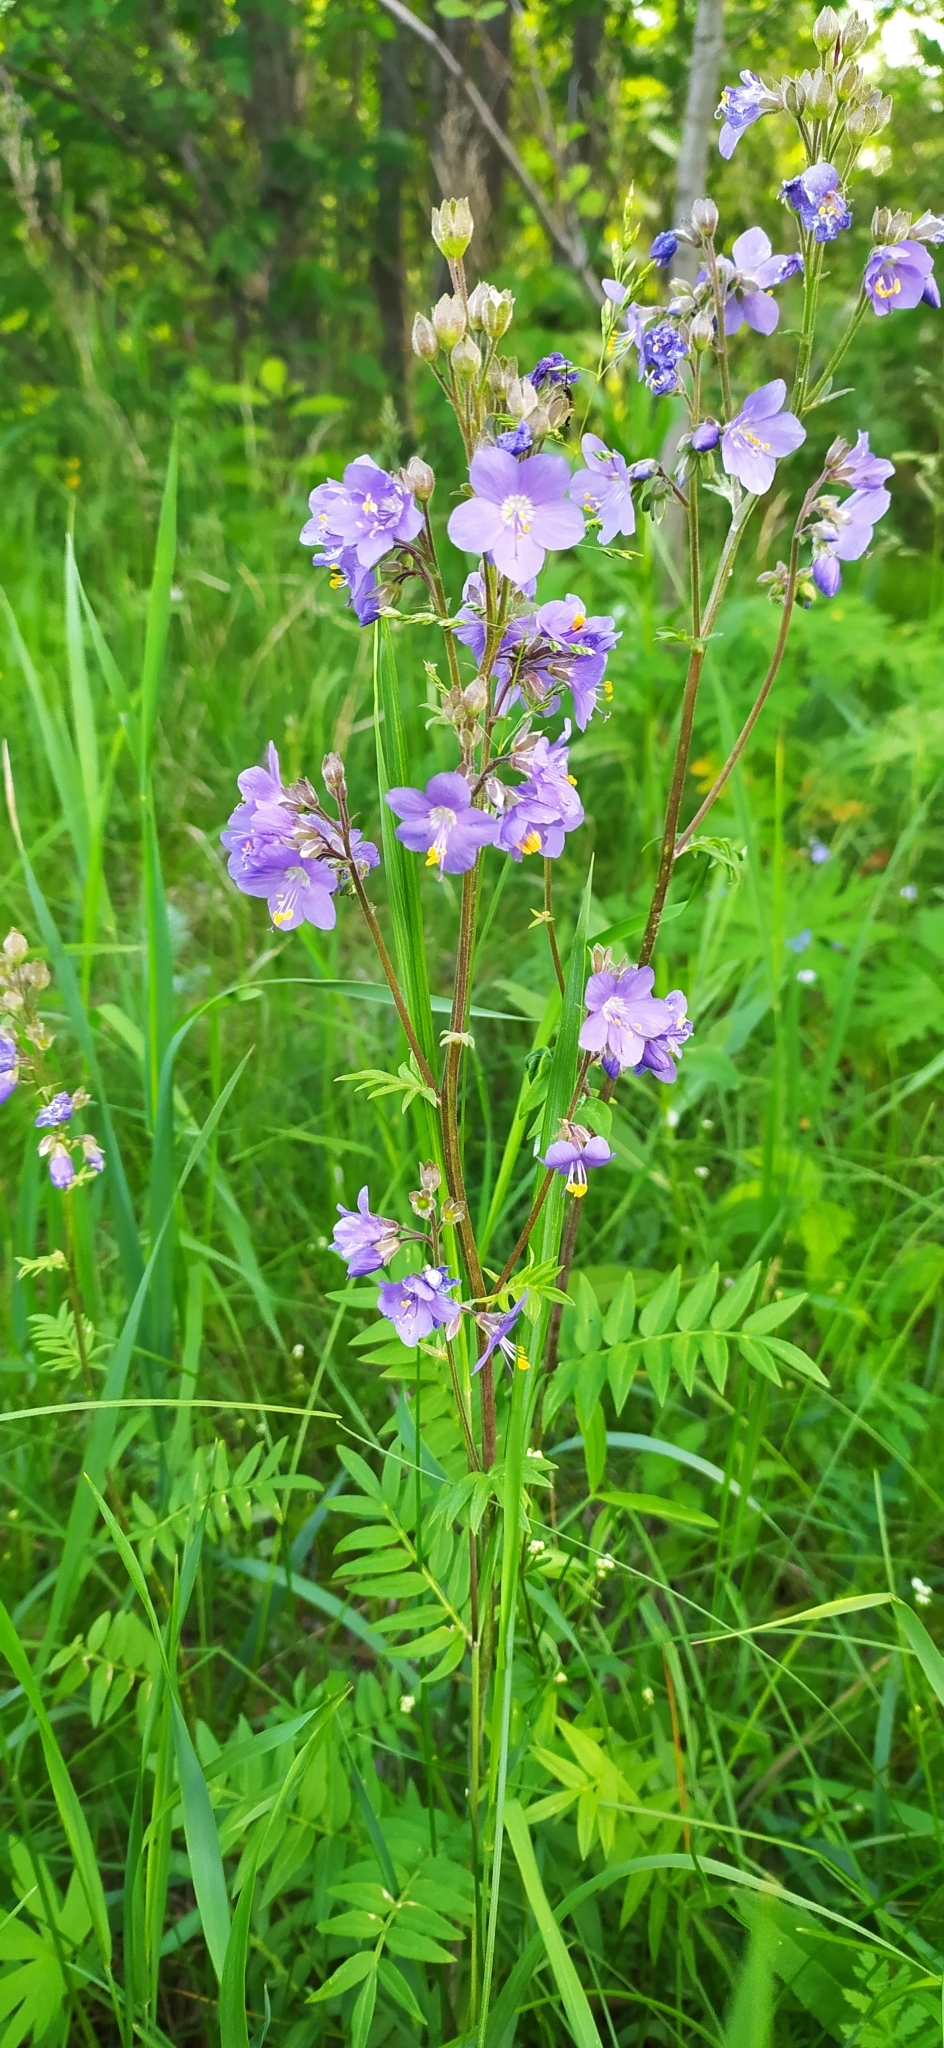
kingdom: Plantae
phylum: Tracheophyta
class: Magnoliopsida
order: Ericales
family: Polemoniaceae
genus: Polemonium
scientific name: Polemonium caeruleum
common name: Jacob's-ladder
